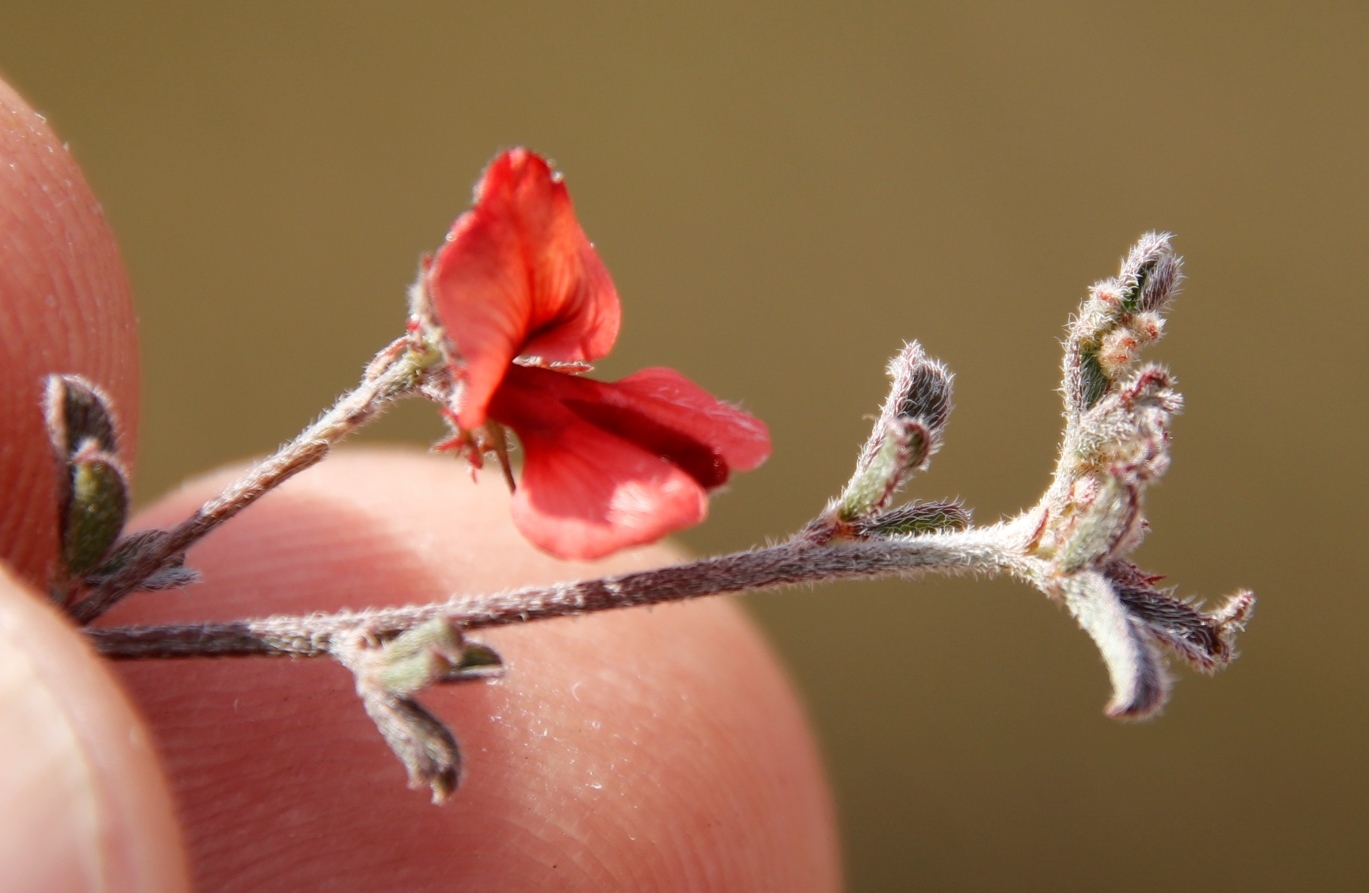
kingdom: Plantae
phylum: Tracheophyta
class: Magnoliopsida
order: Fabales
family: Fabaceae
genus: Indigofera
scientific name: Indigofera priorii
